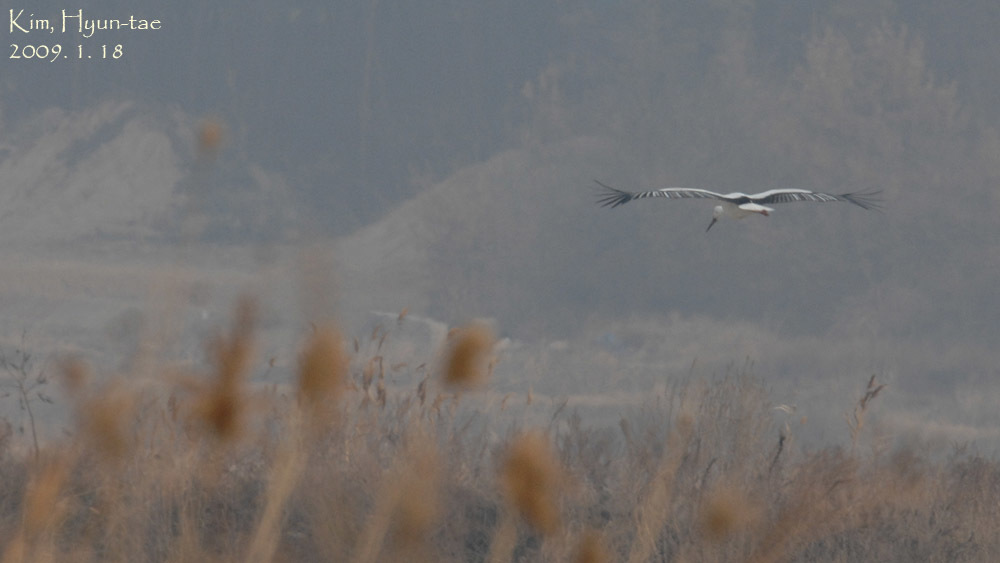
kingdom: Animalia
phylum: Chordata
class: Aves
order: Ciconiiformes
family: Ciconiidae
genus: Ciconia
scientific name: Ciconia boyciana
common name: Oriental stork
